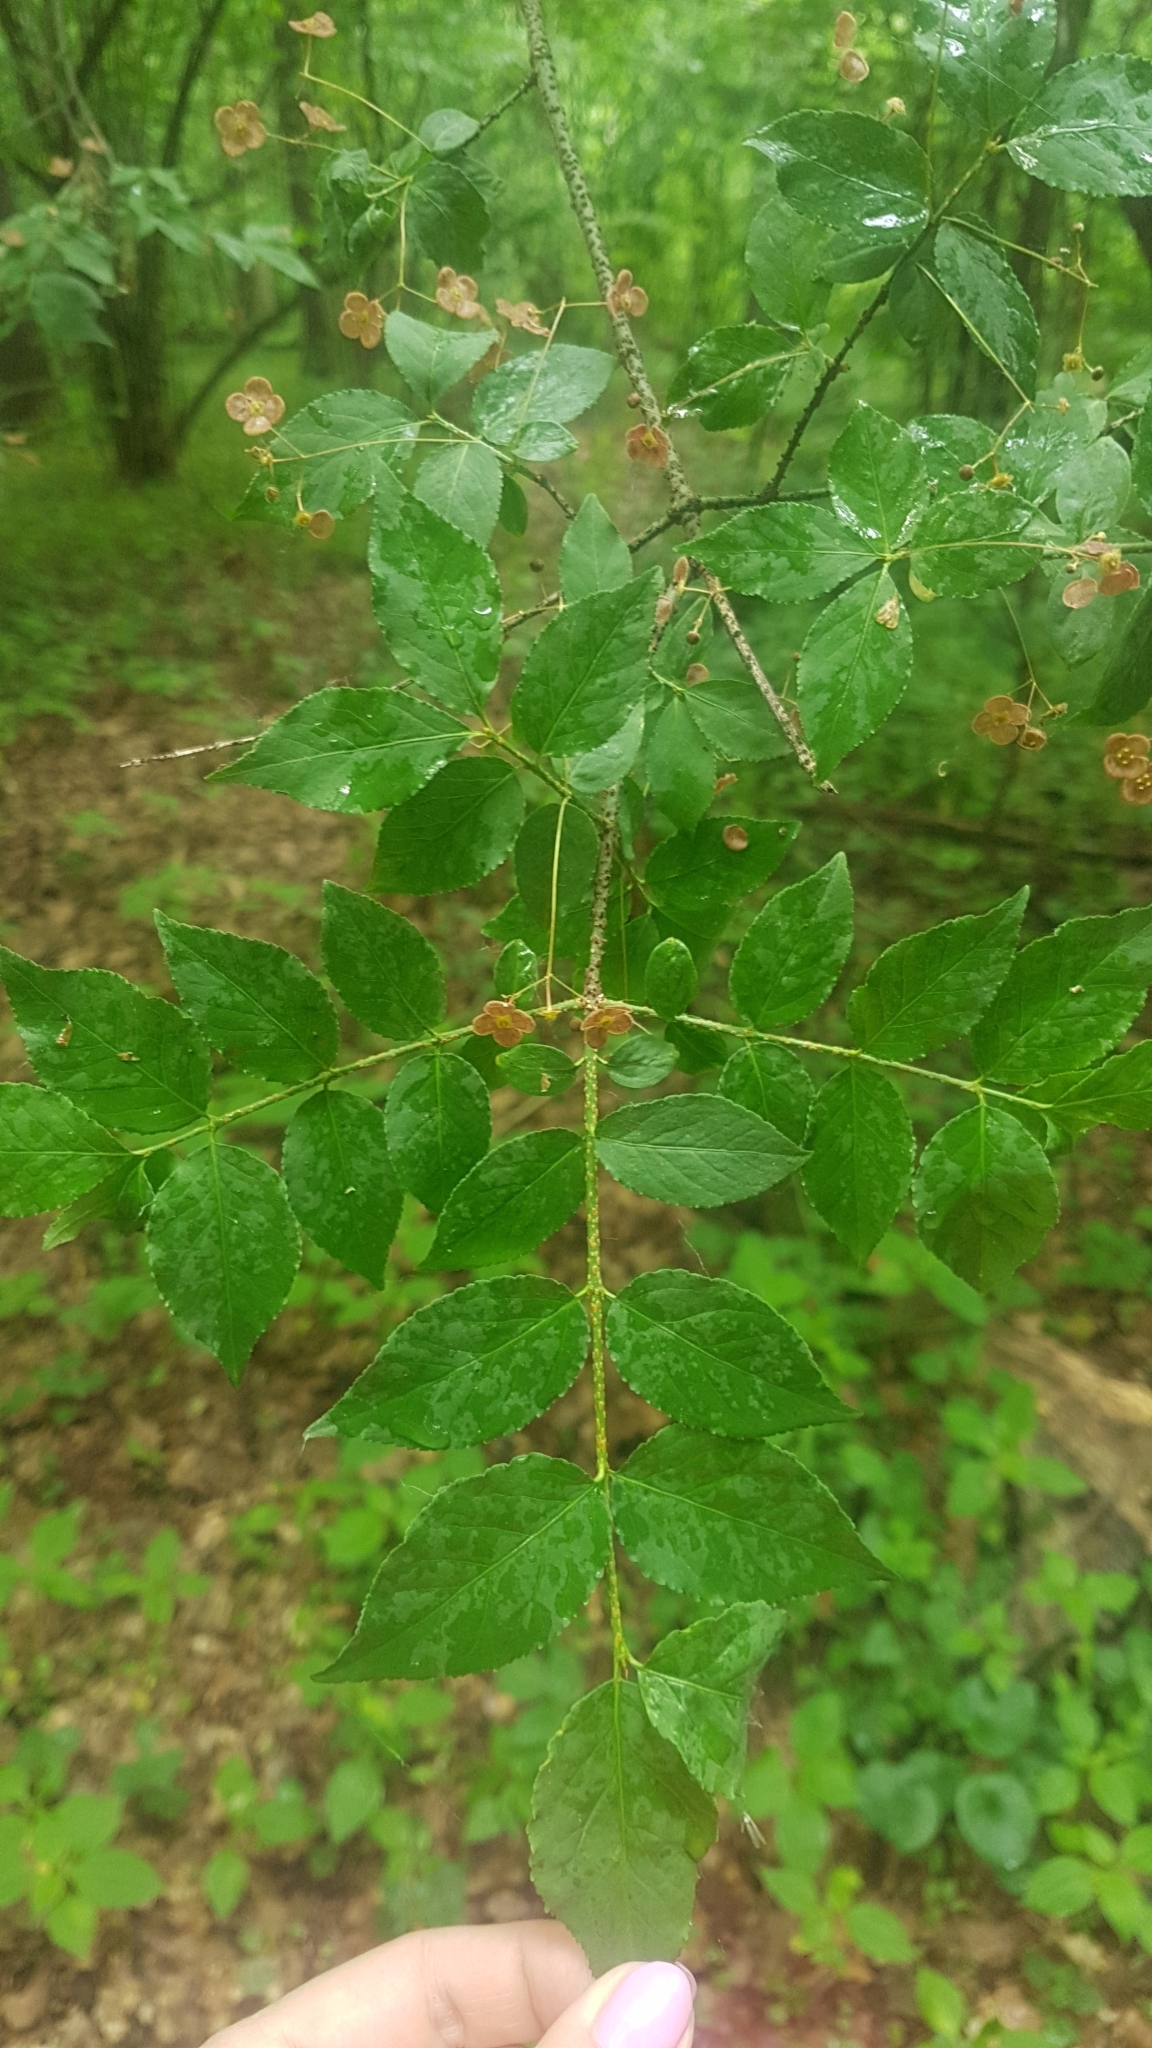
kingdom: Plantae
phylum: Tracheophyta
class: Magnoliopsida
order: Celastrales
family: Celastraceae
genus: Euonymus
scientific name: Euonymus verrucosus
